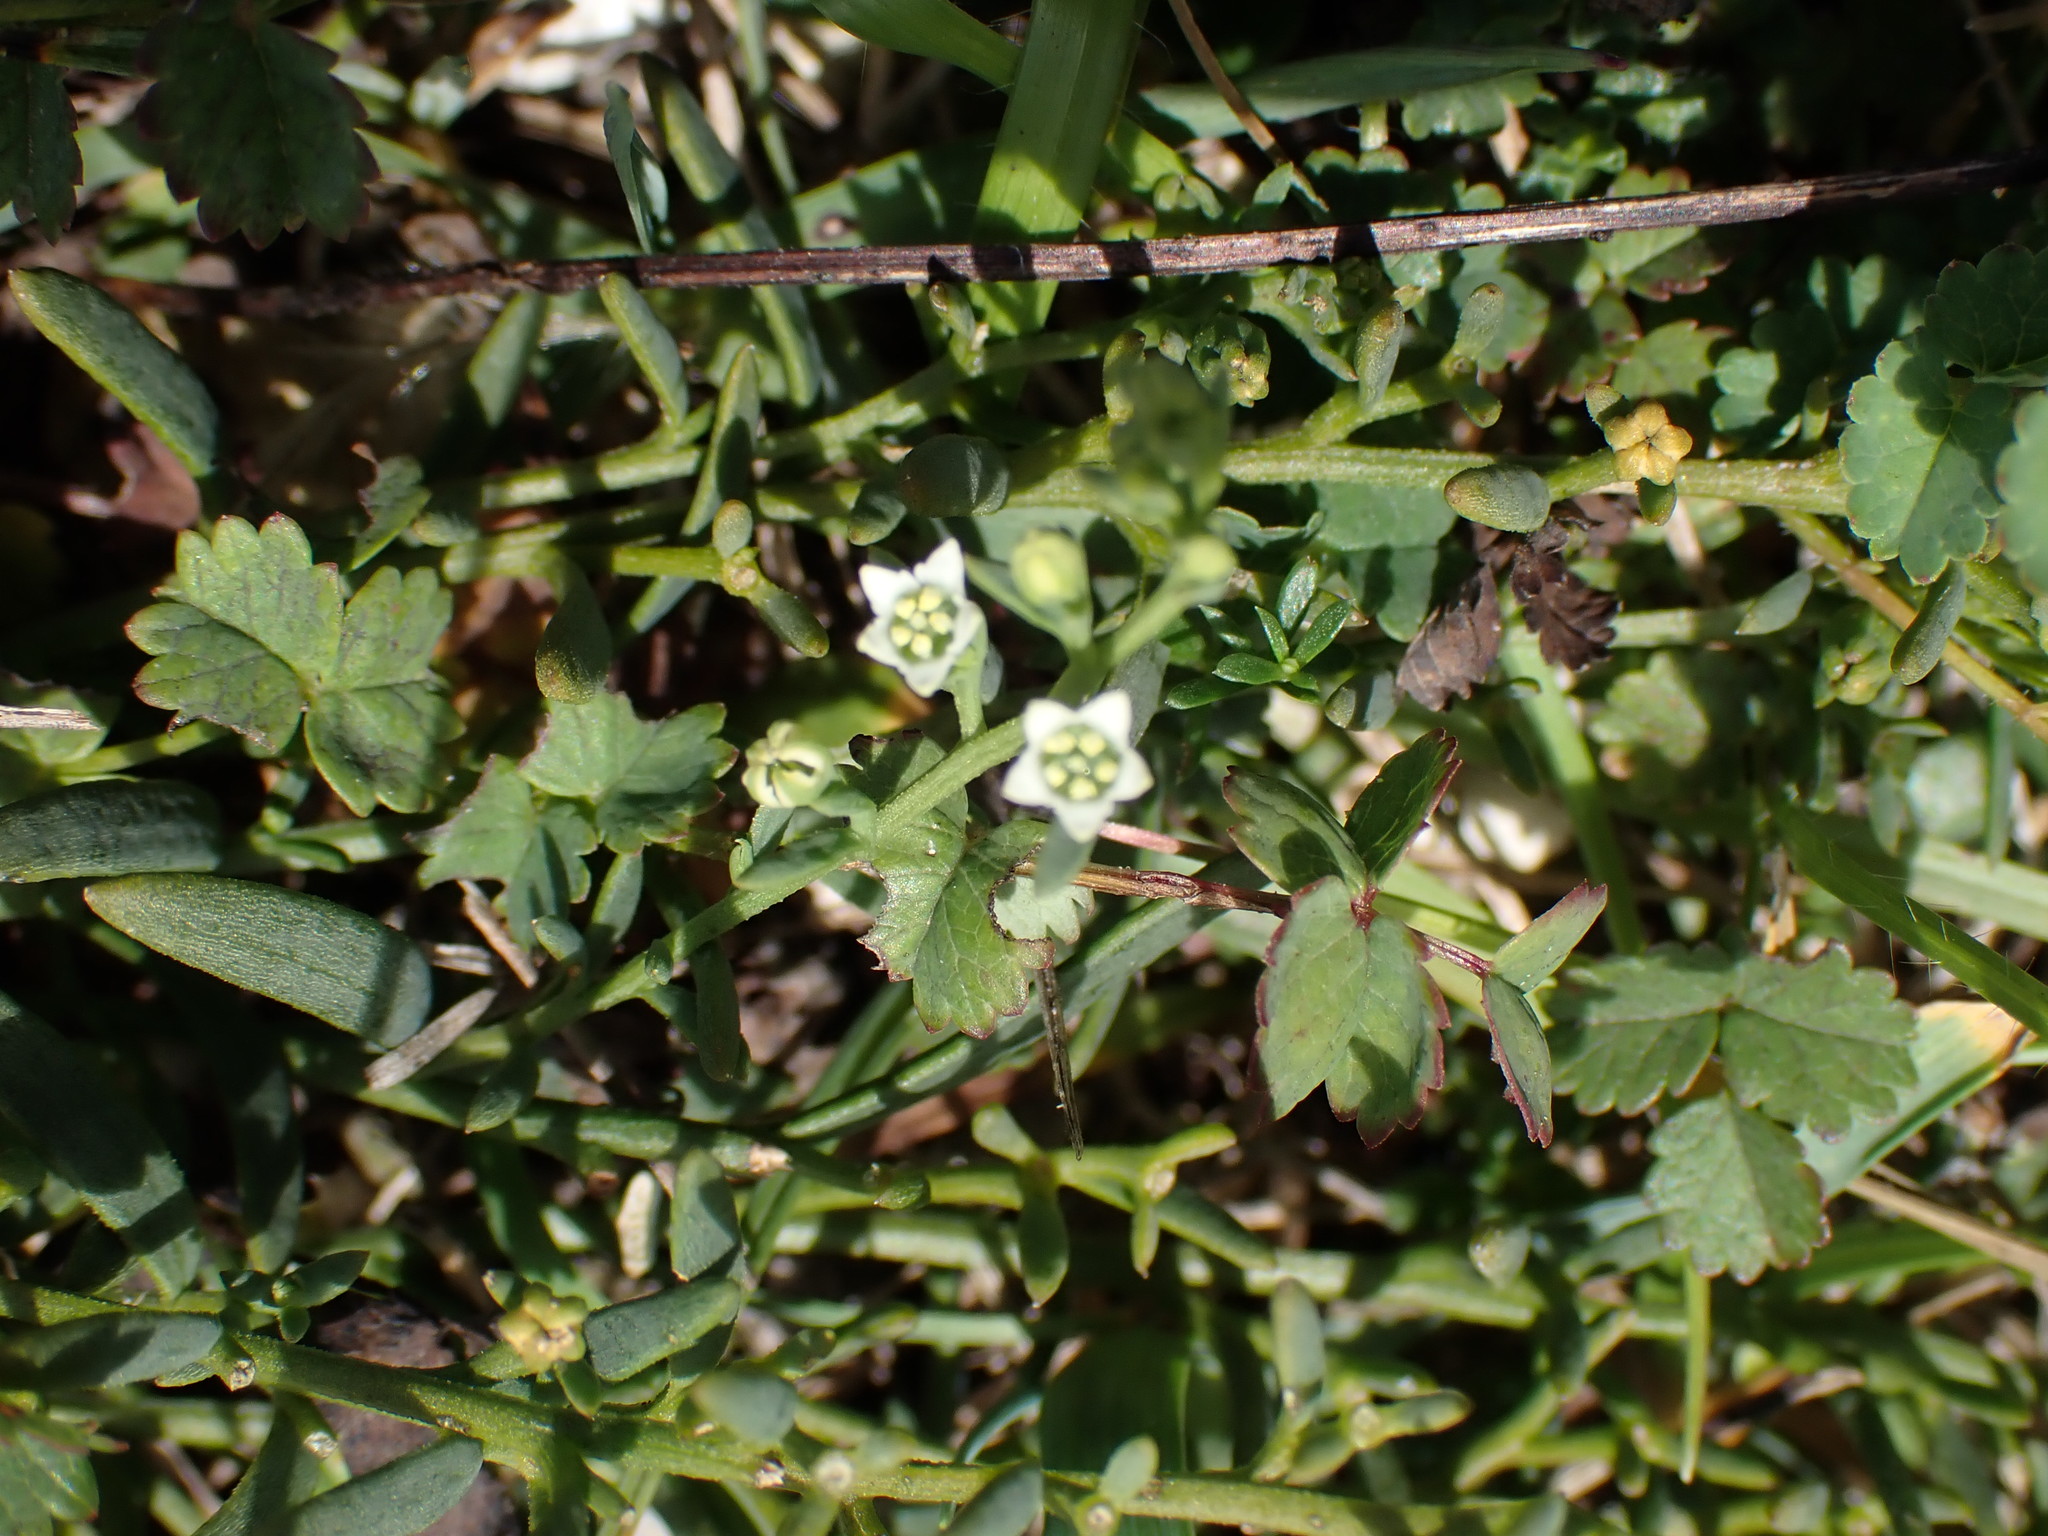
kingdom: Plantae
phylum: Tracheophyta
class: Magnoliopsida
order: Santalales
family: Thesiaceae
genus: Thesium
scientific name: Thesium humifusum
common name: Bastard-toadflax
